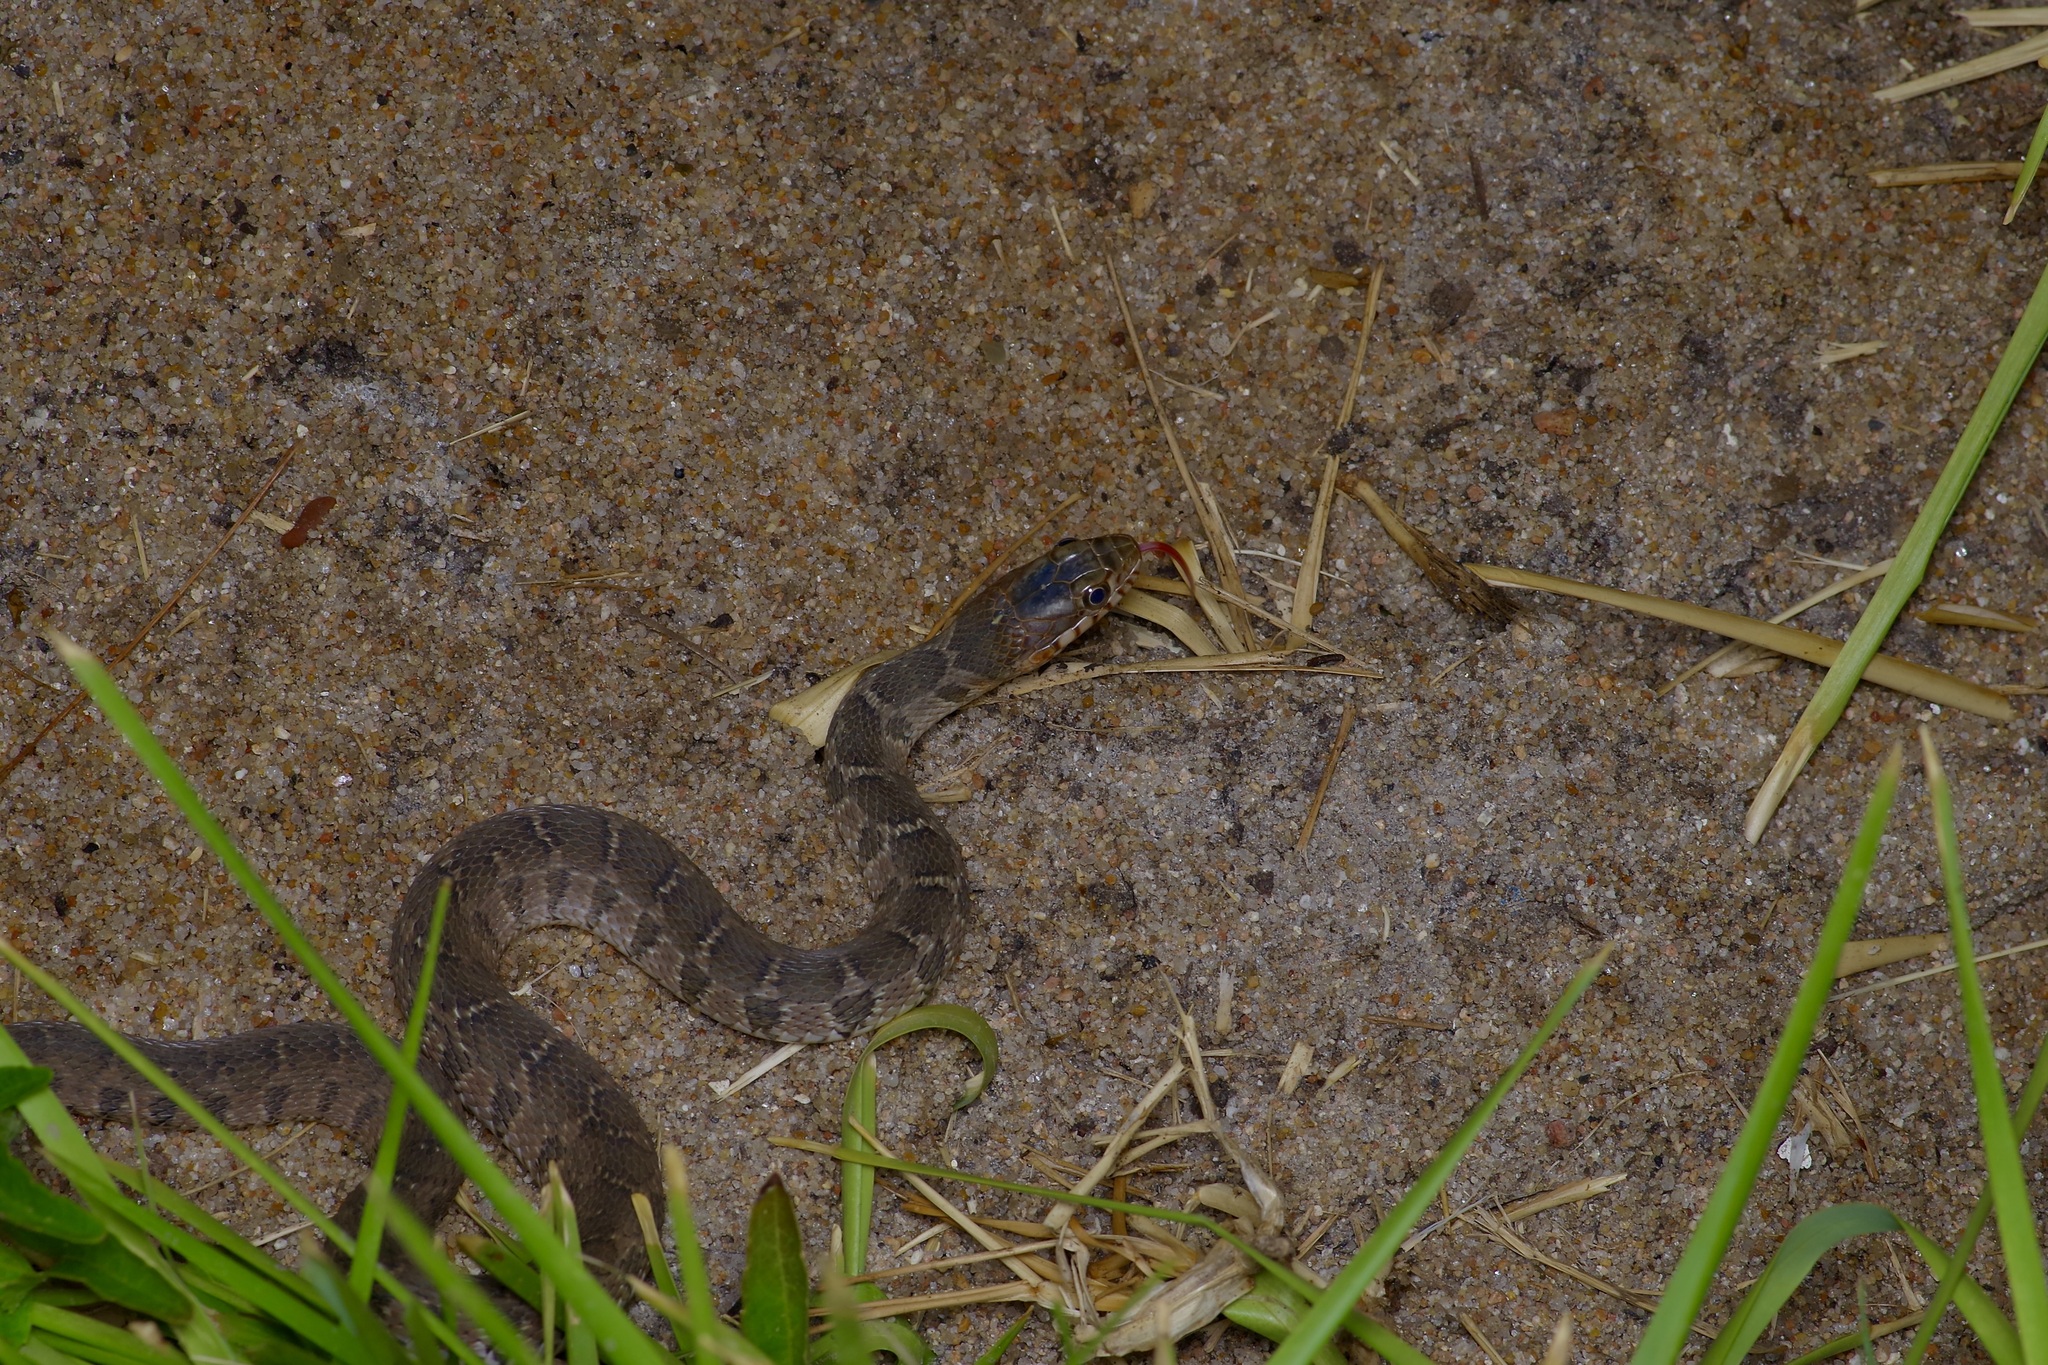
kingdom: Animalia
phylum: Chordata
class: Squamata
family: Colubridae
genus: Nerodia
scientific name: Nerodia erythrogaster
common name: Plainbelly water snake
